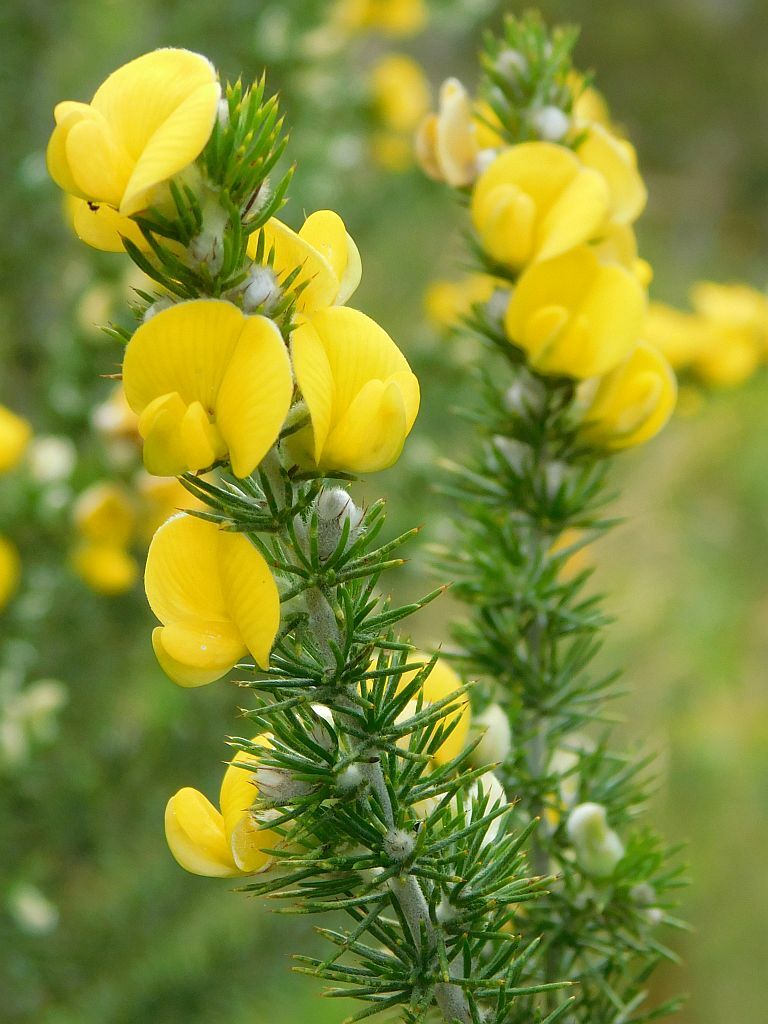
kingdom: Plantae
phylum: Tracheophyta
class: Magnoliopsida
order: Fabales
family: Fabaceae
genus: Aspalathus
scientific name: Aspalathus hirta
